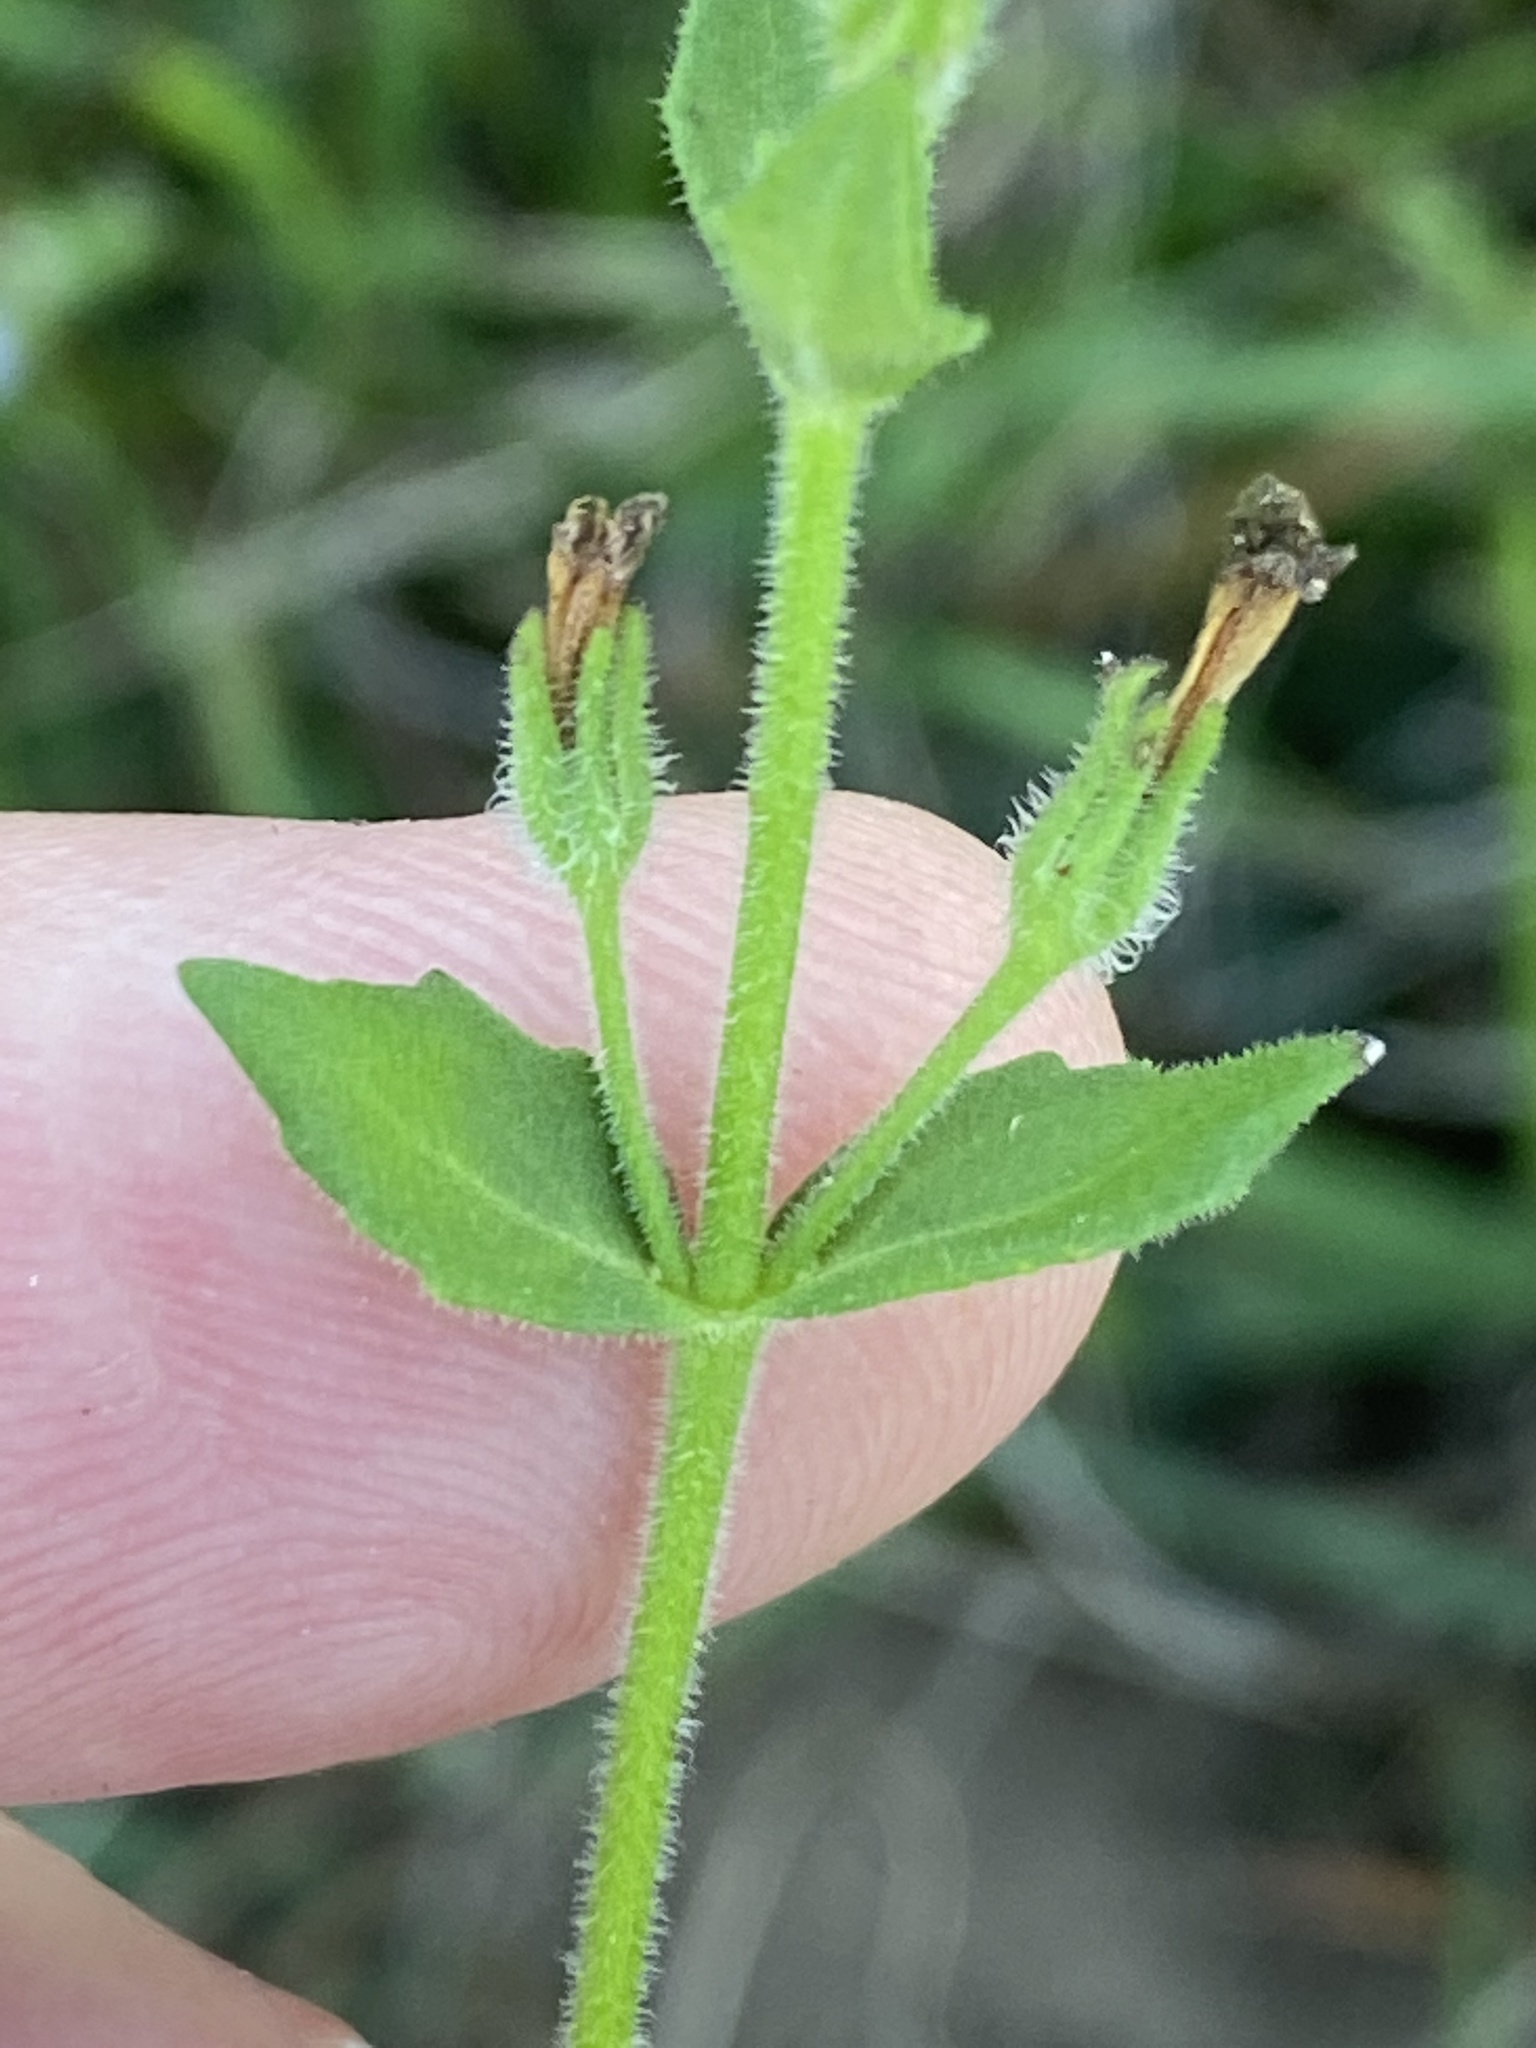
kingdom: Plantae
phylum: Tracheophyta
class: Magnoliopsida
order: Lamiales
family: Scrophulariaceae
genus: Chaenostoma
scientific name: Chaenostoma roseoflavum
